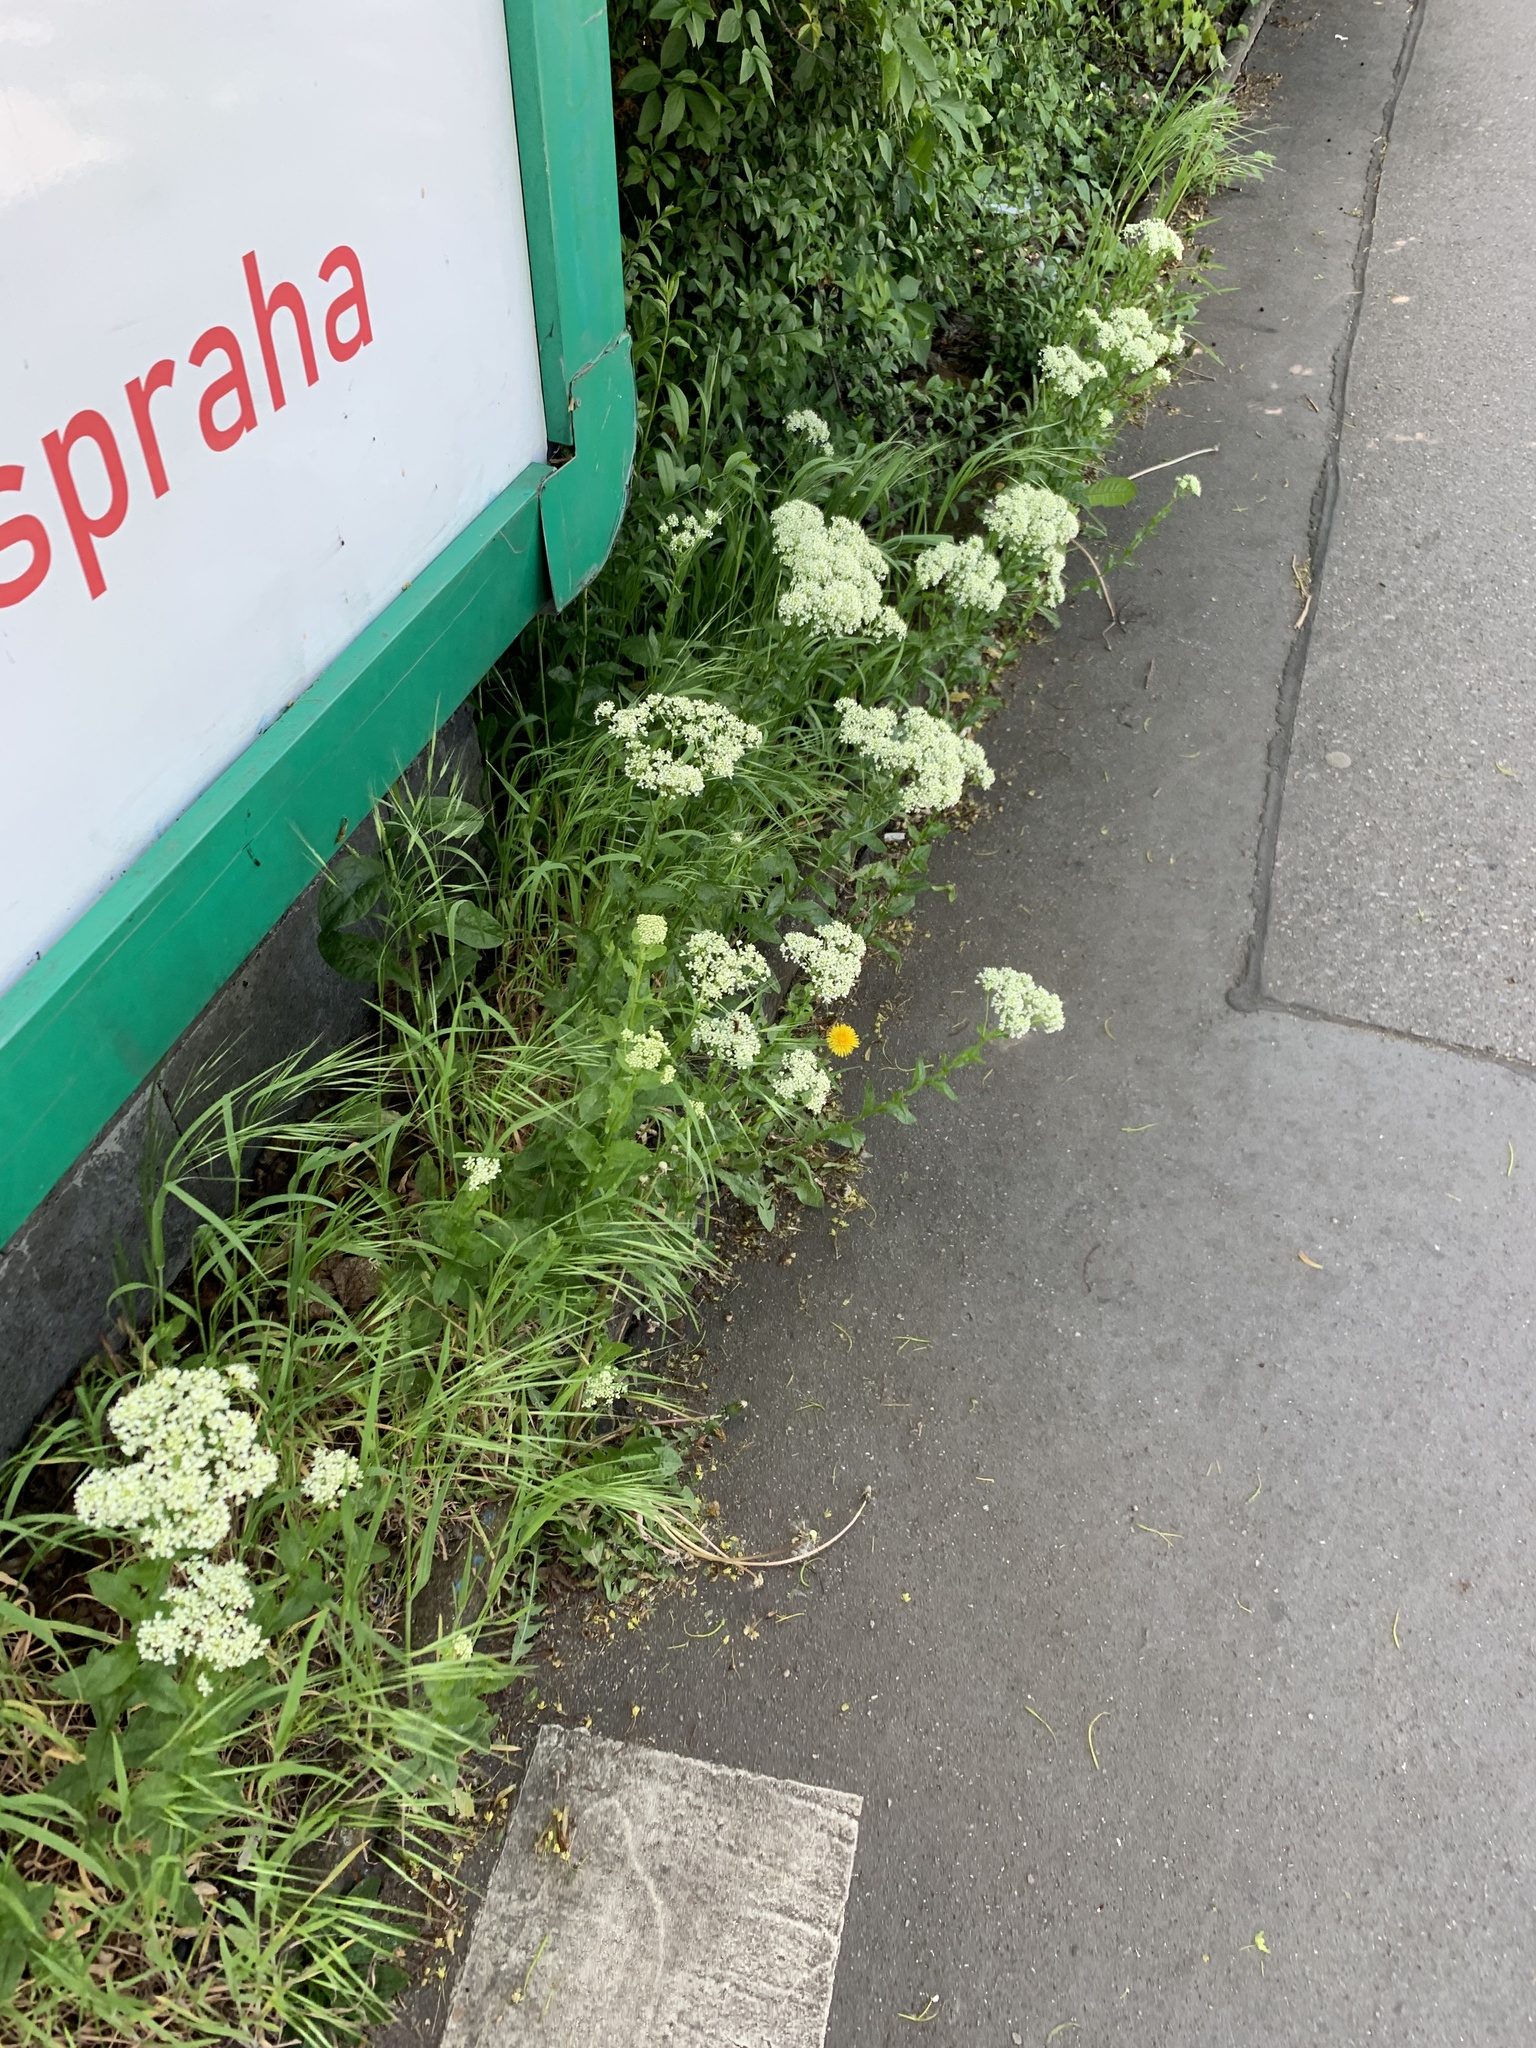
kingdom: Plantae
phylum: Tracheophyta
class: Magnoliopsida
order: Brassicales
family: Brassicaceae
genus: Lepidium
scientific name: Lepidium draba
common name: Hoary cress
